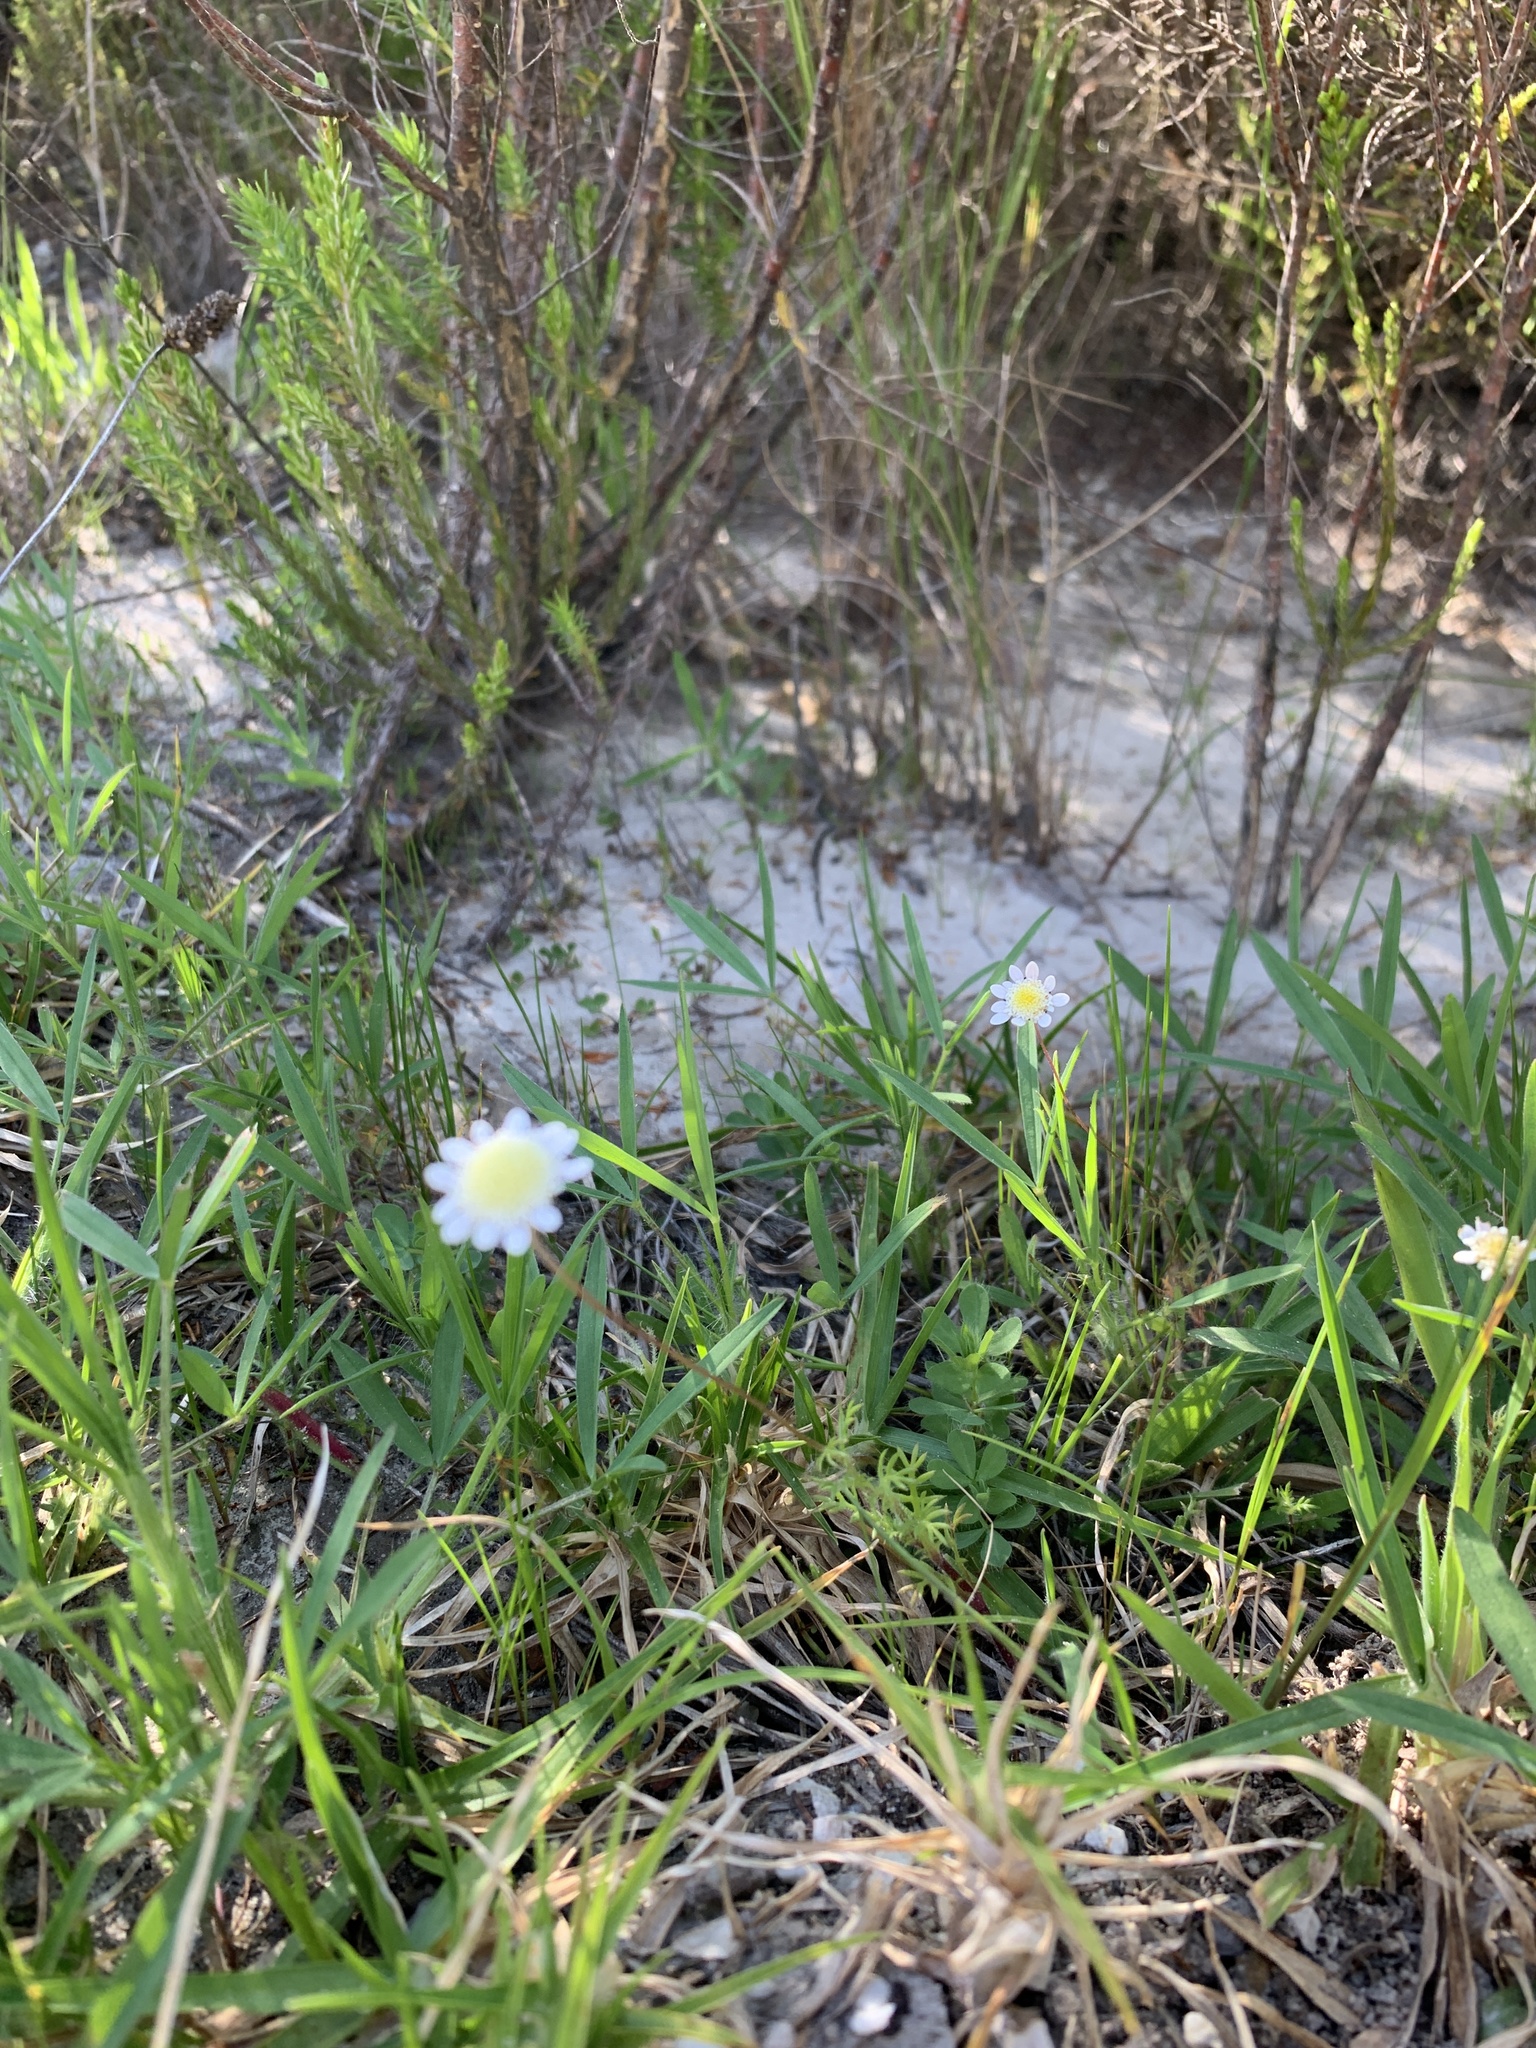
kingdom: Plantae
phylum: Tracheophyta
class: Magnoliopsida
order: Asterales
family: Asteraceae
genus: Cotula
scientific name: Cotula turbinata
